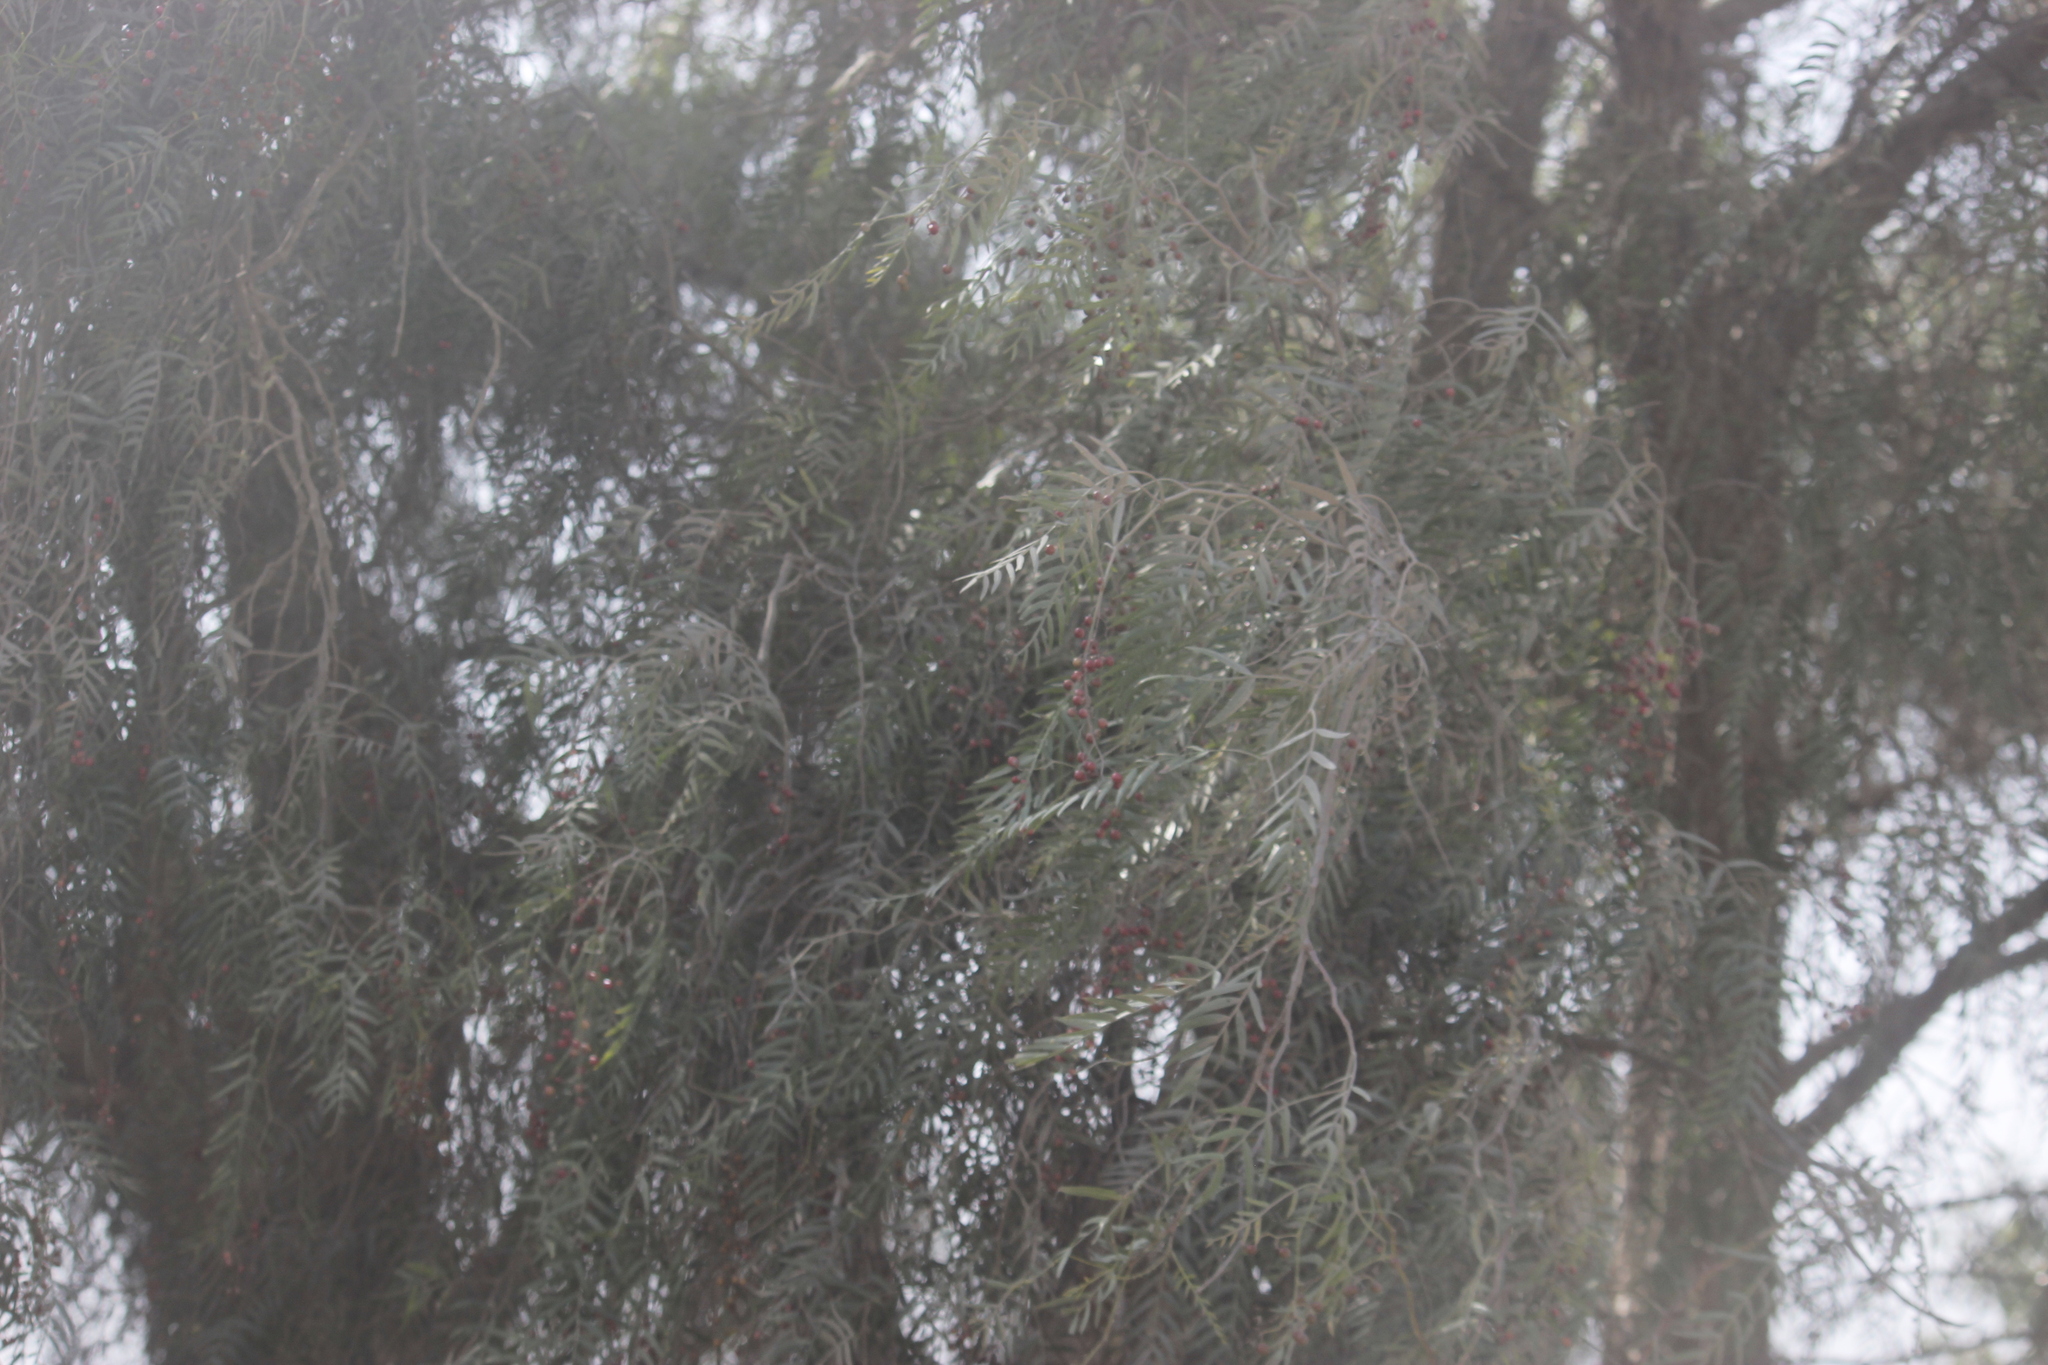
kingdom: Plantae
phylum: Tracheophyta
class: Magnoliopsida
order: Sapindales
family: Anacardiaceae
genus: Schinus
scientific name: Schinus molle
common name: Peruvian peppertree
